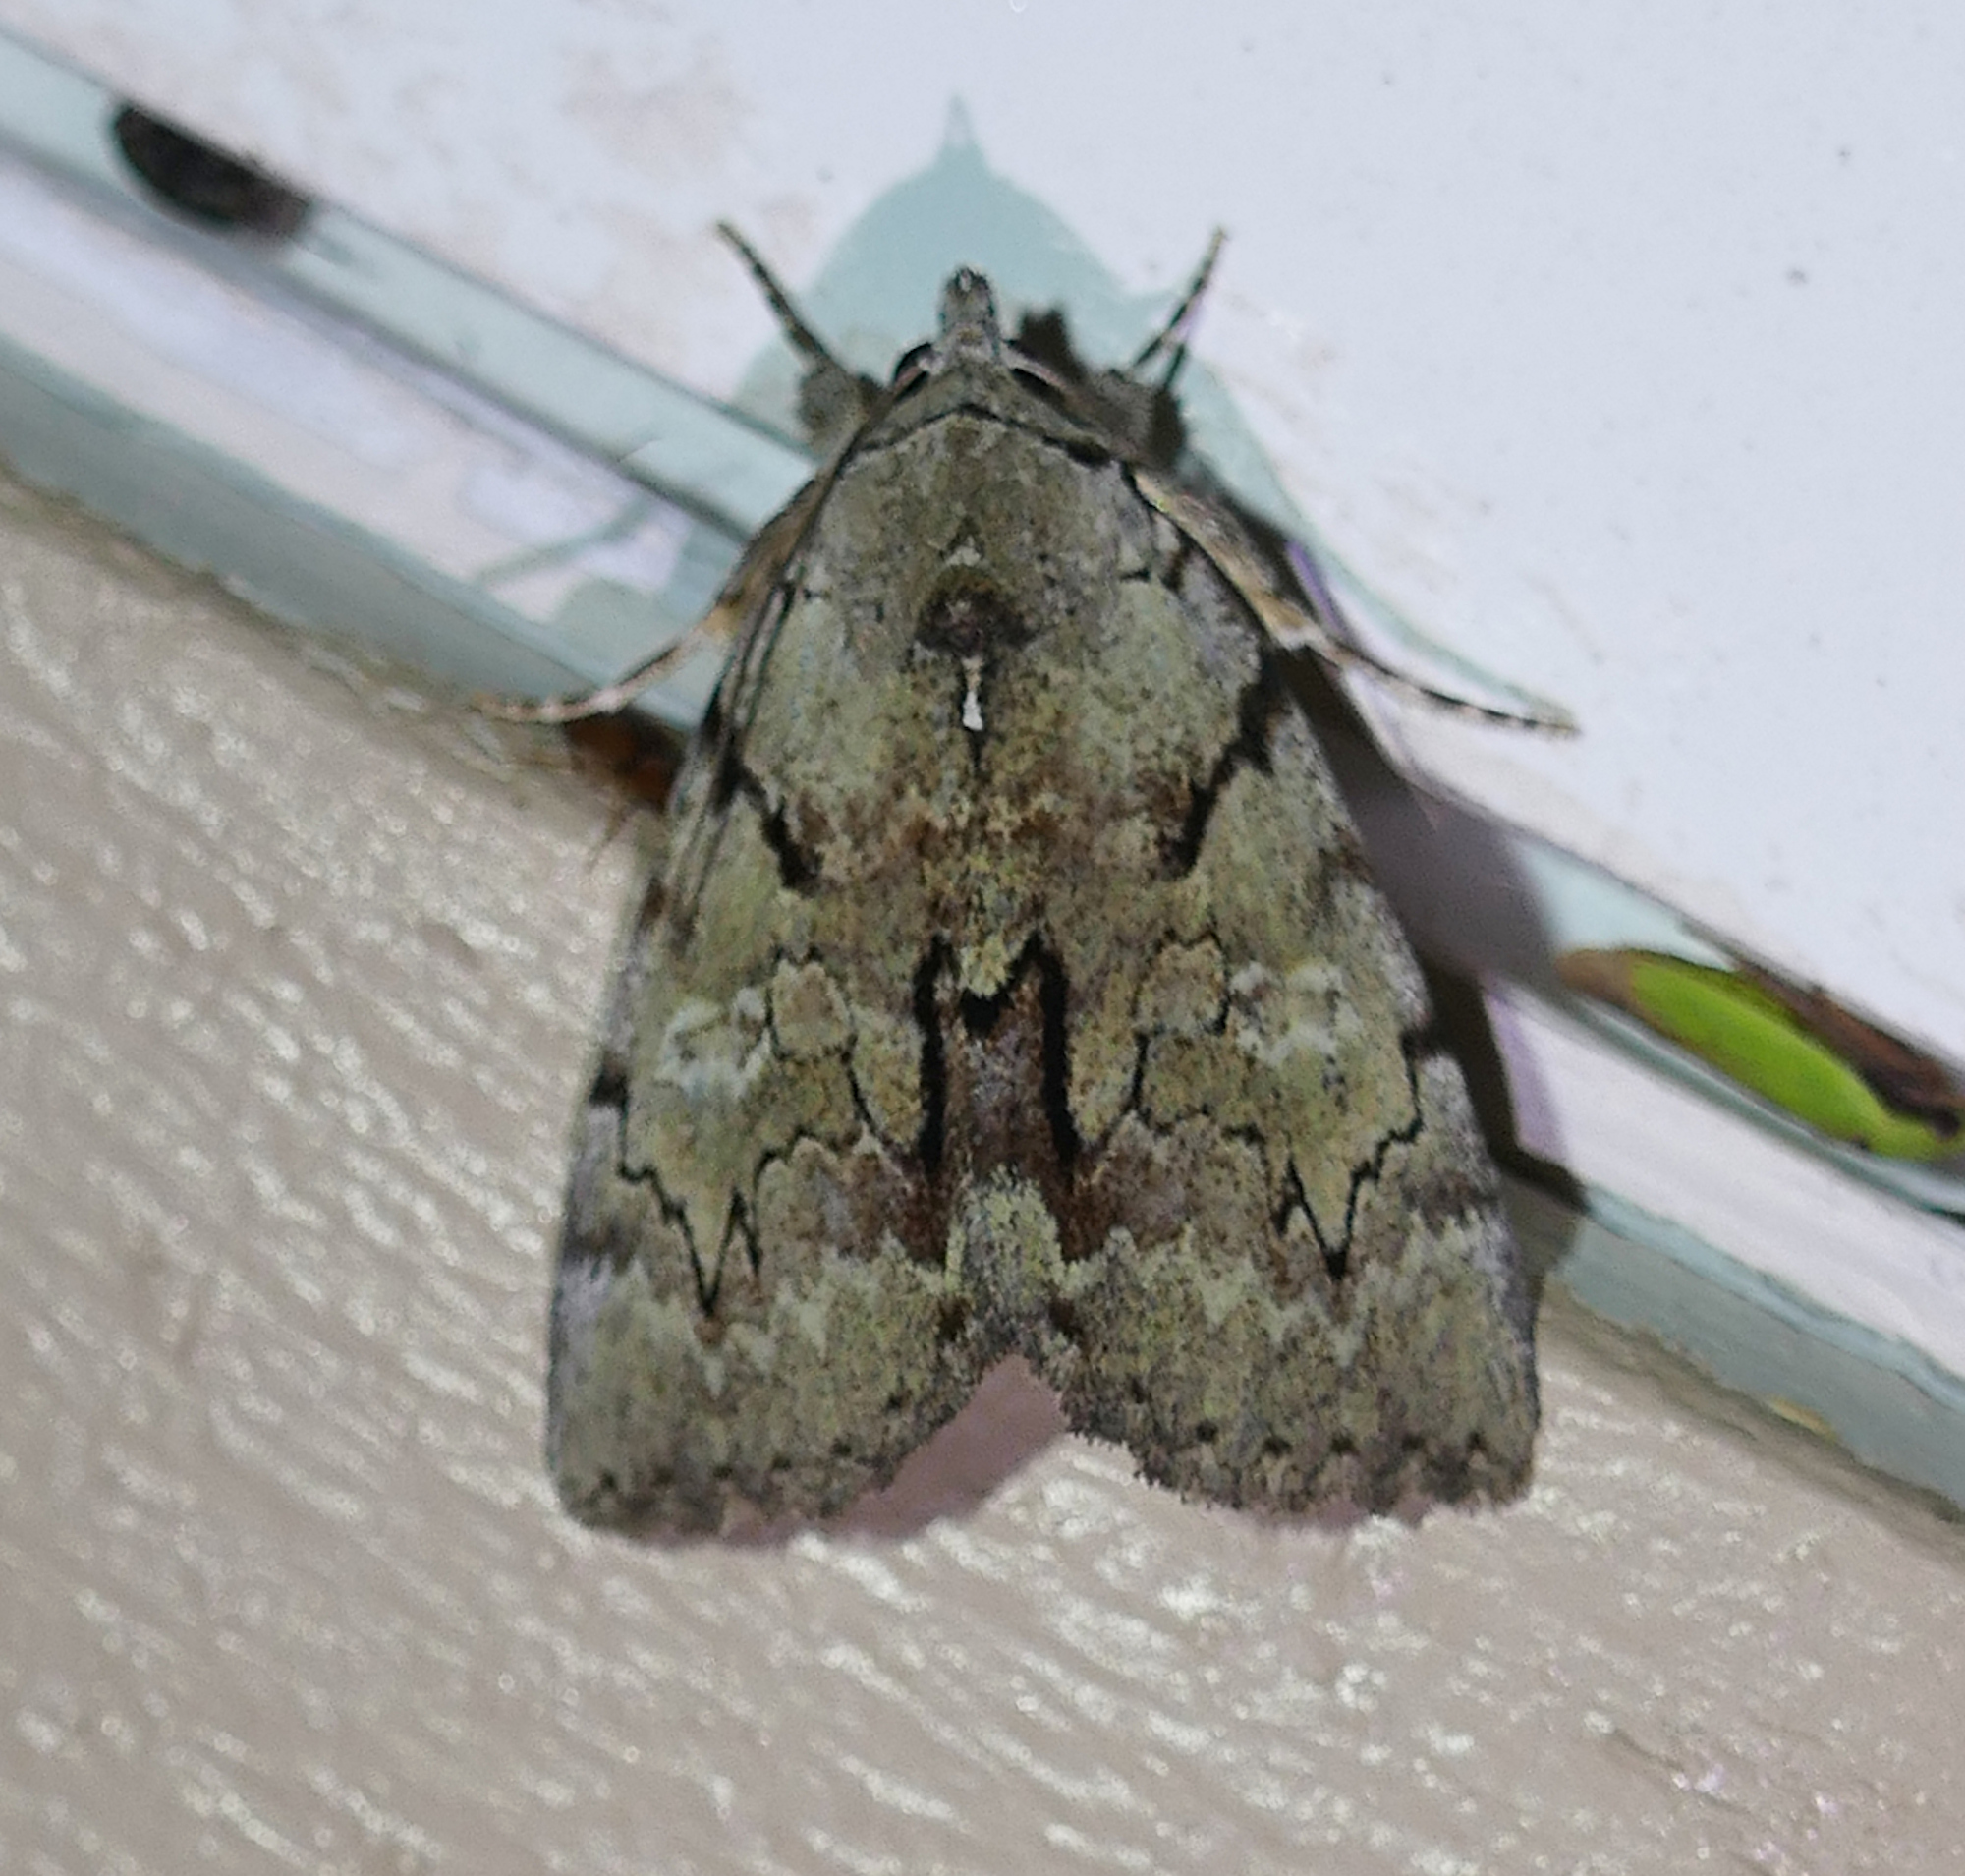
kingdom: Animalia
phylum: Arthropoda
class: Insecta
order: Lepidoptera
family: Erebidae
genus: Catocala
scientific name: Catocala alabamae
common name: Alabama underwing
